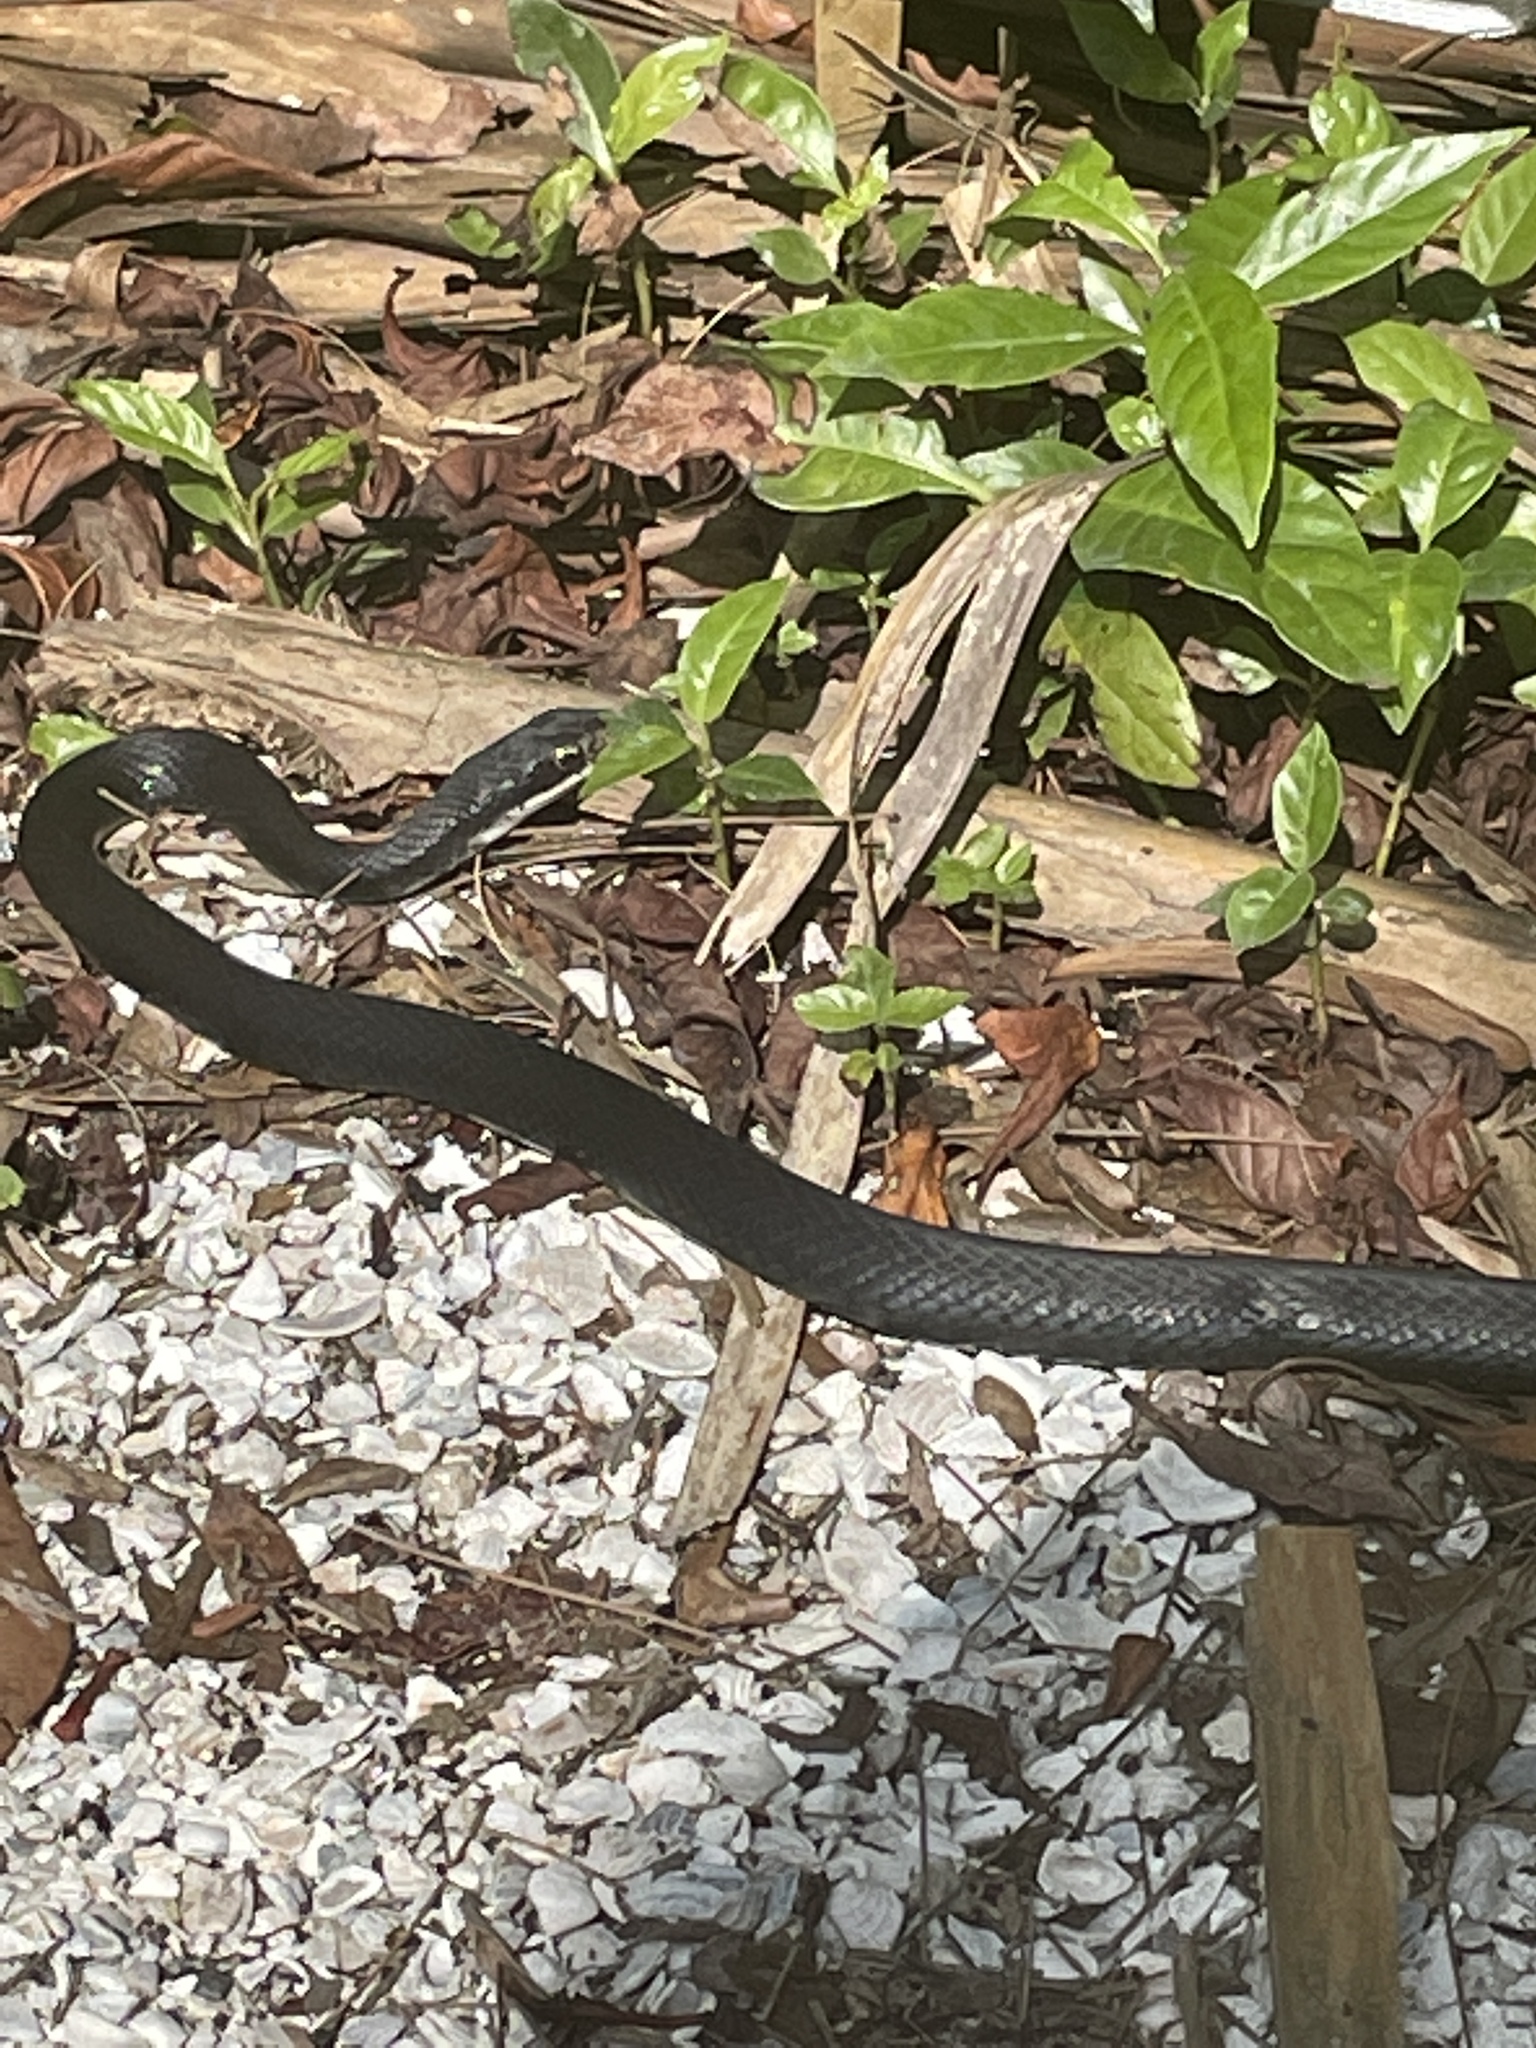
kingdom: Animalia
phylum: Chordata
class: Squamata
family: Colubridae
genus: Coluber
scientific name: Coluber constrictor
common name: Eastern racer
